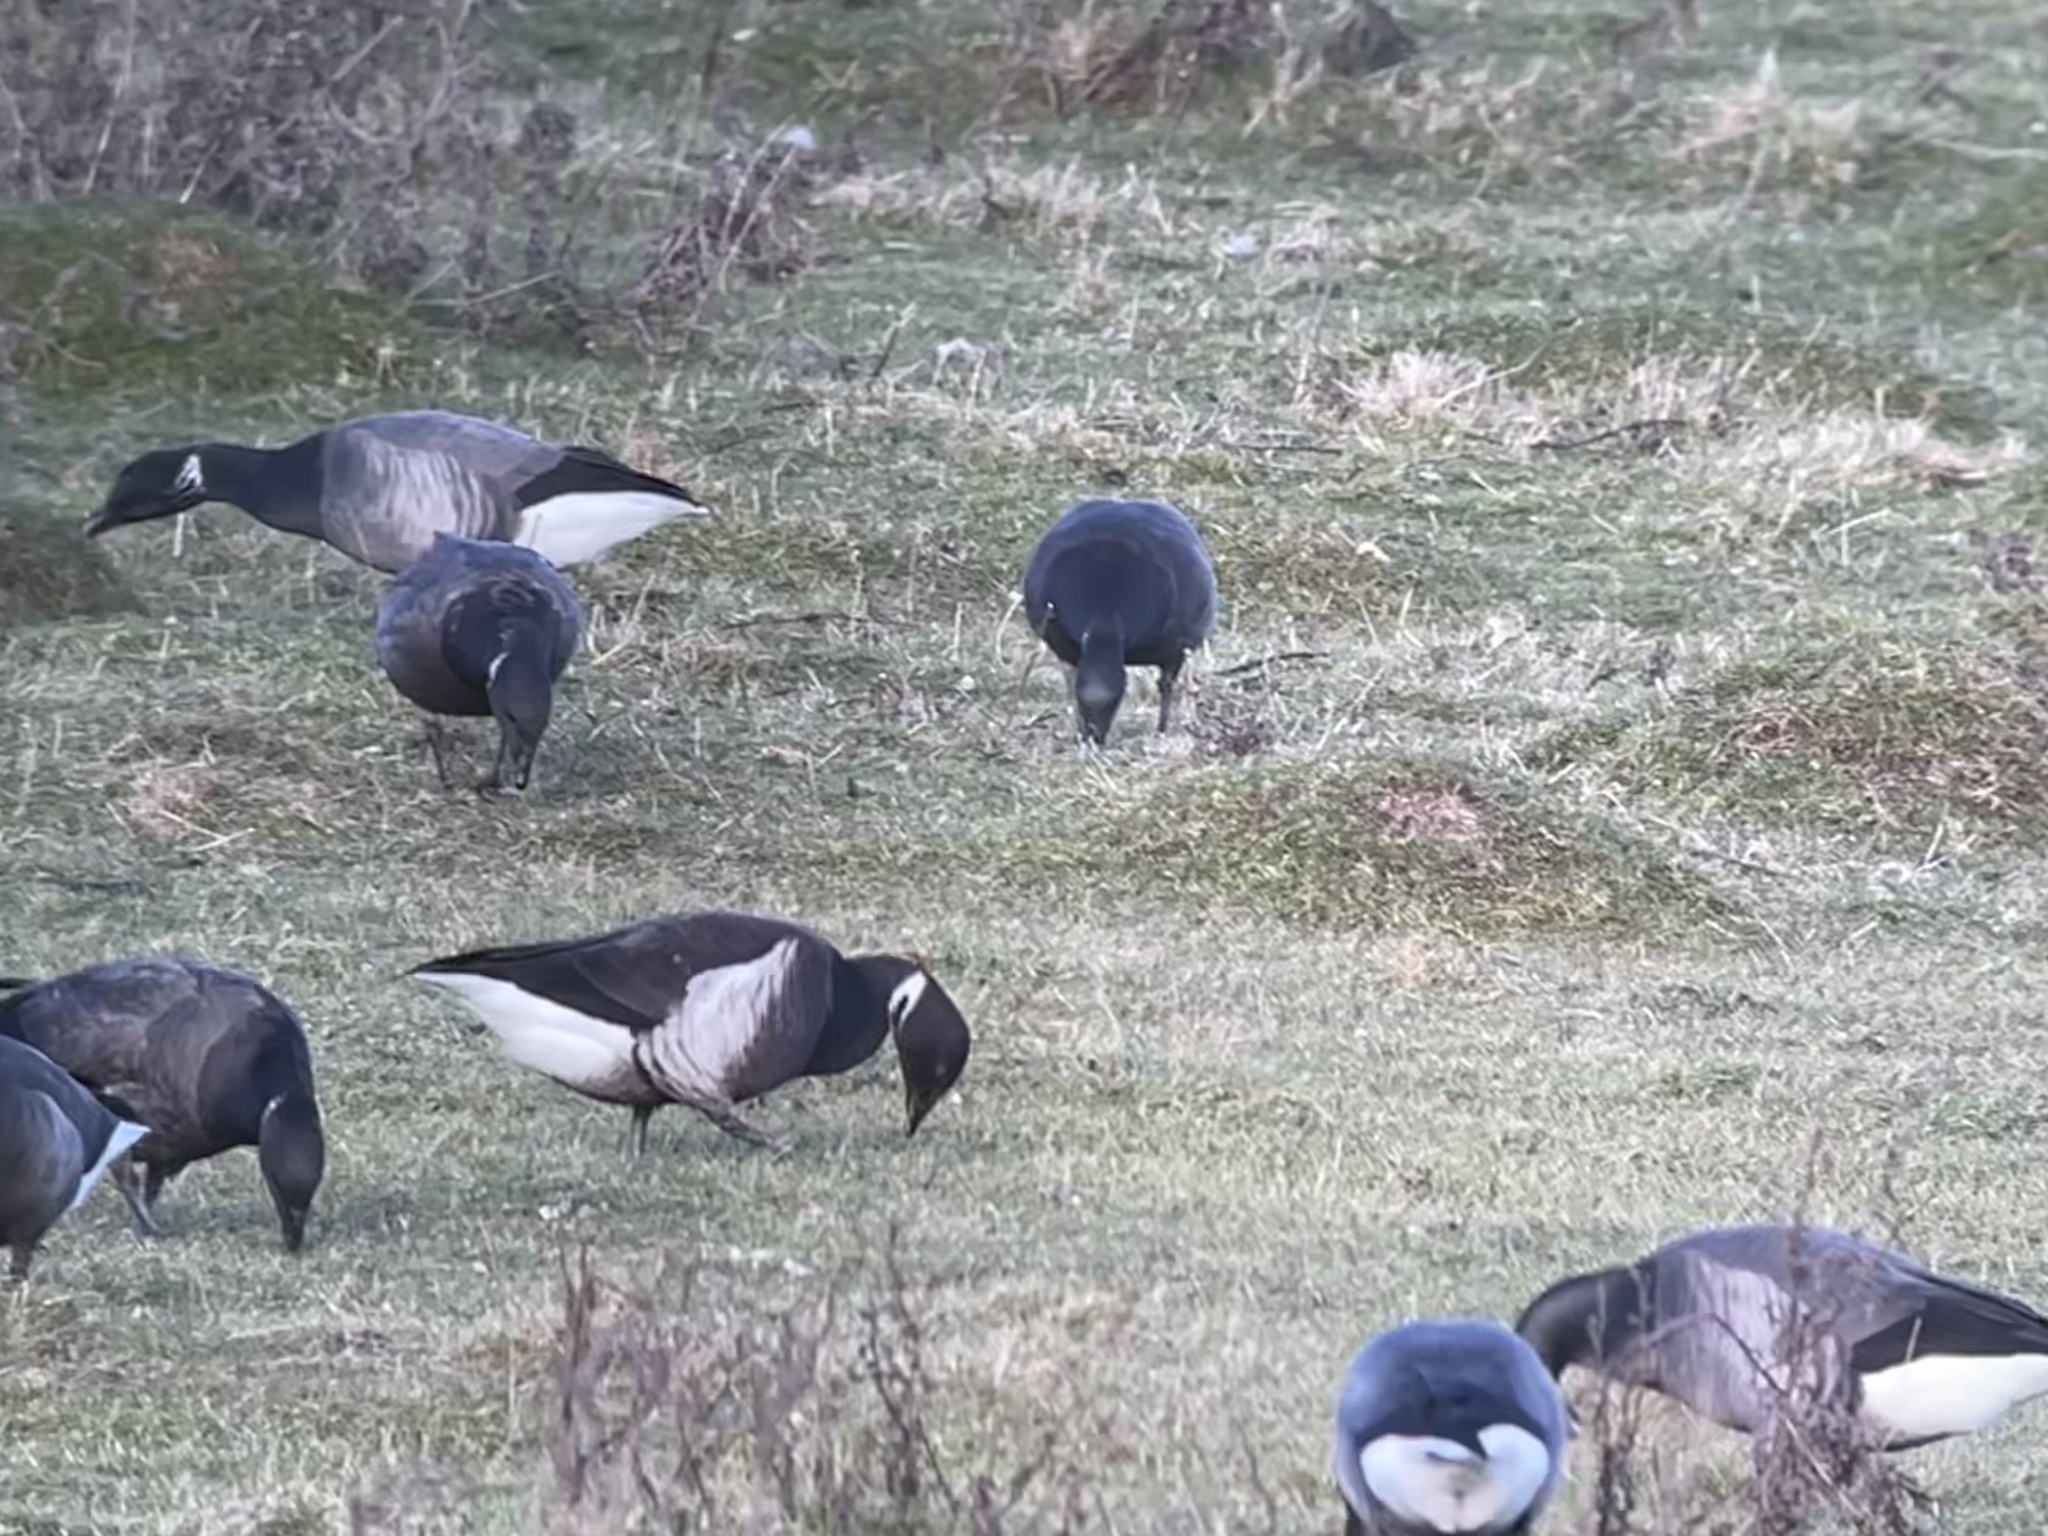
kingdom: Animalia
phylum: Chordata
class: Aves
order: Anseriformes
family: Anatidae
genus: Branta
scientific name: Branta bernicla
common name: Brant goose
